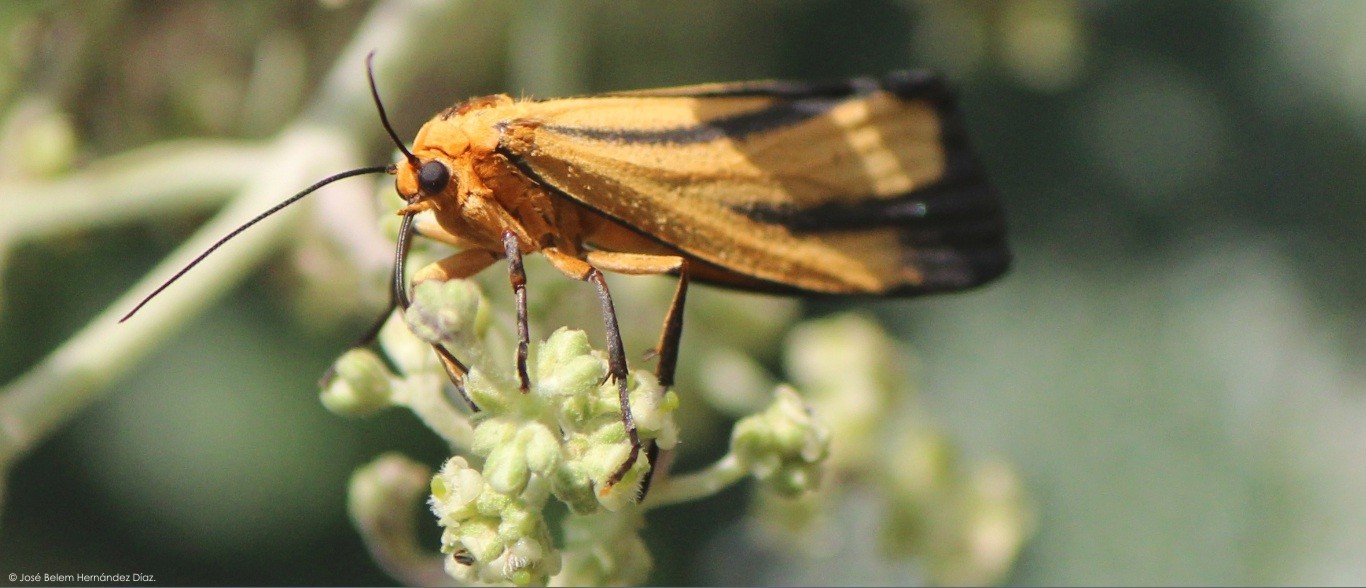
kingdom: Animalia
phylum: Arthropoda
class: Insecta
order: Lepidoptera
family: Erebidae
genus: Eurylomia
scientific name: Eurylomia cordula
